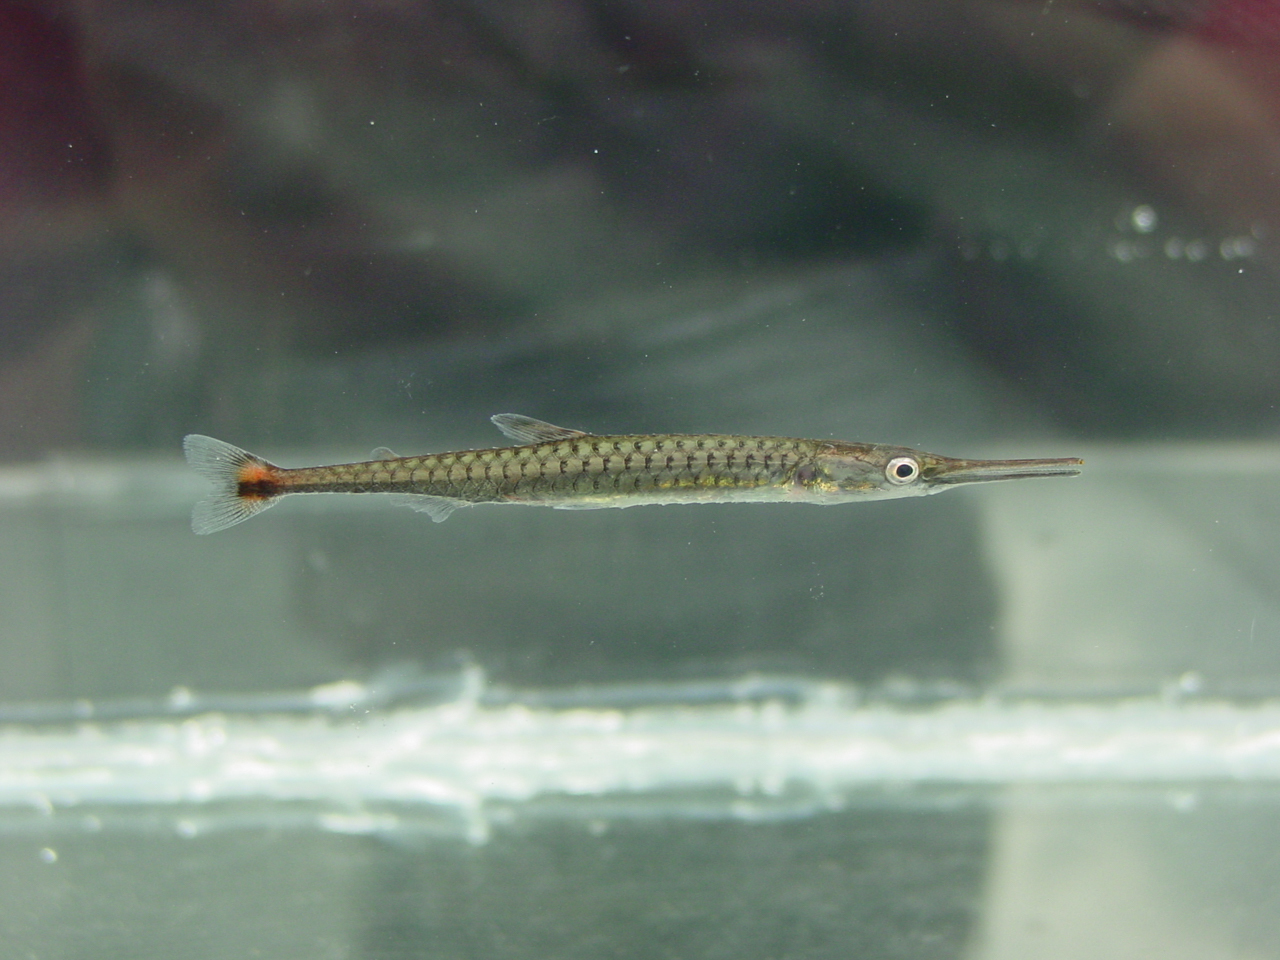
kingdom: Animalia
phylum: Chordata
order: Characiformes
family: Distichodontidae
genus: Belonophago
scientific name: Belonophago hutsebouti
